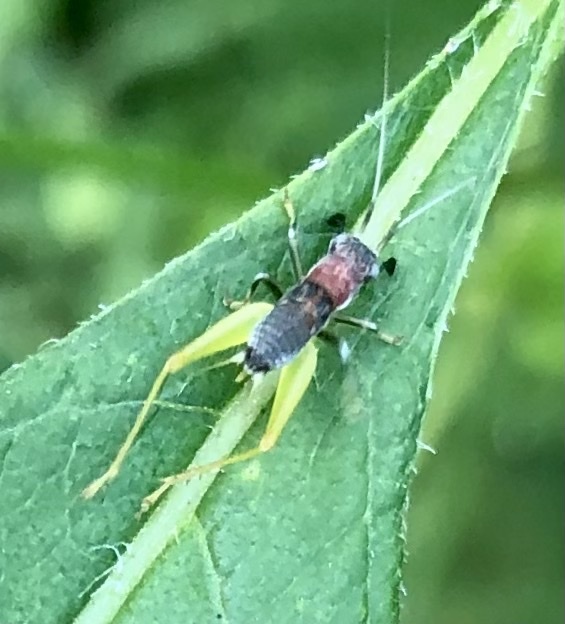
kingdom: Animalia
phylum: Arthropoda
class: Insecta
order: Orthoptera
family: Trigonidiidae
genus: Phyllopalpus
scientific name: Phyllopalpus pulchellus
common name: Handsome trig
